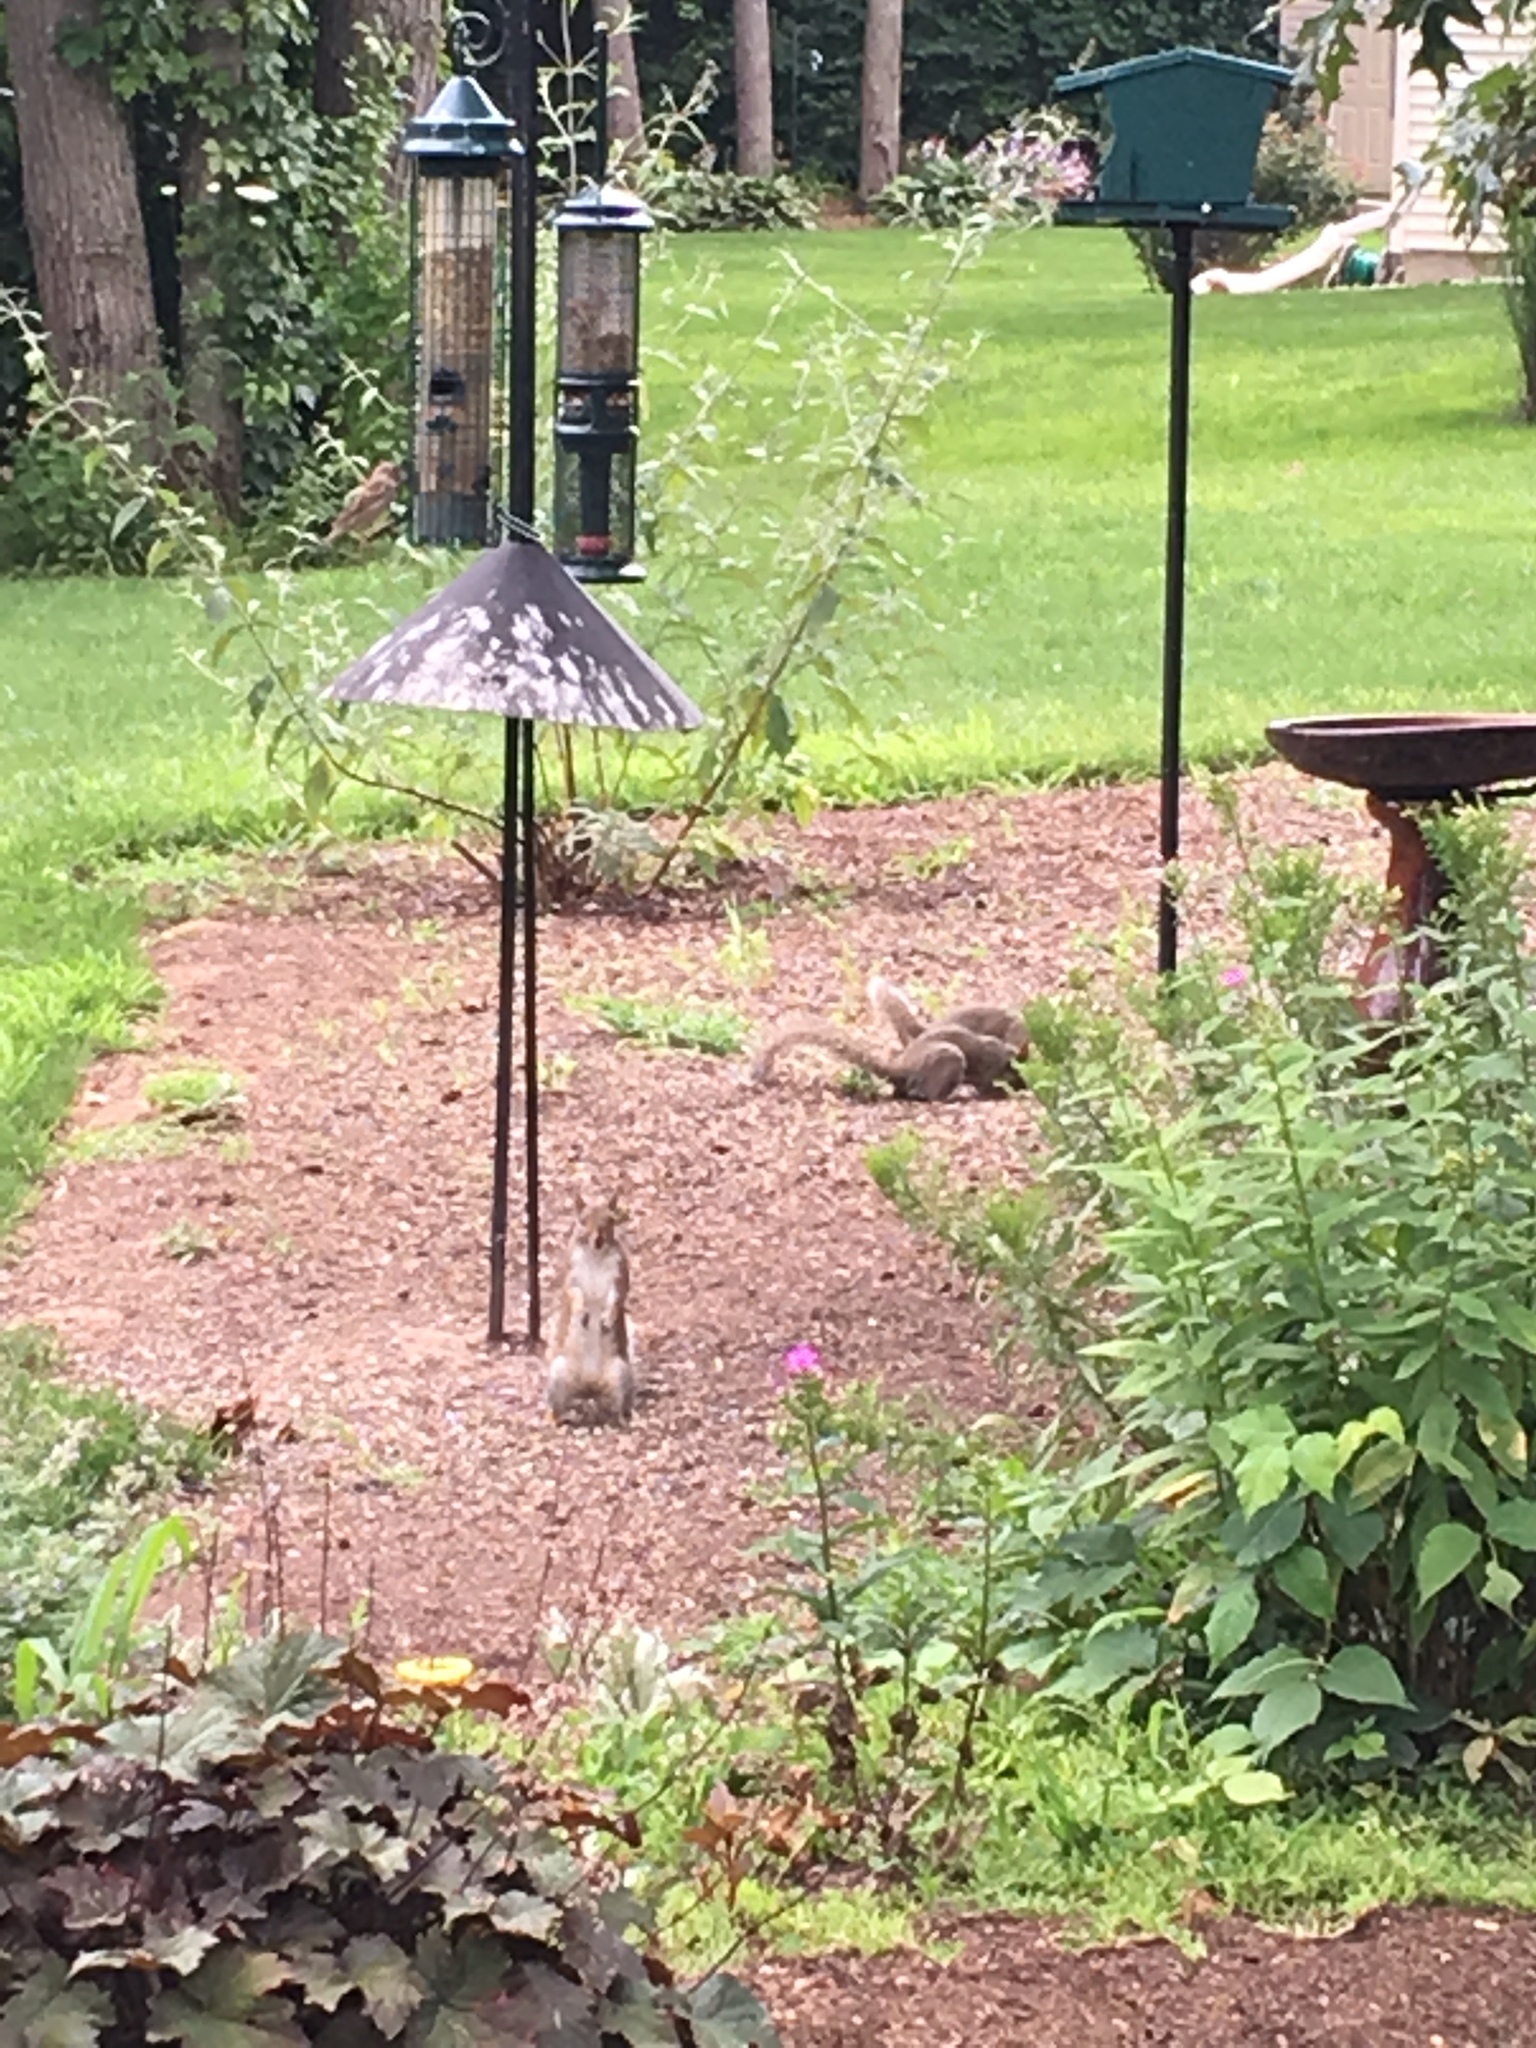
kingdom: Animalia
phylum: Chordata
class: Mammalia
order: Rodentia
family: Sciuridae
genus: Sciurus
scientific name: Sciurus carolinensis
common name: Eastern gray squirrel
